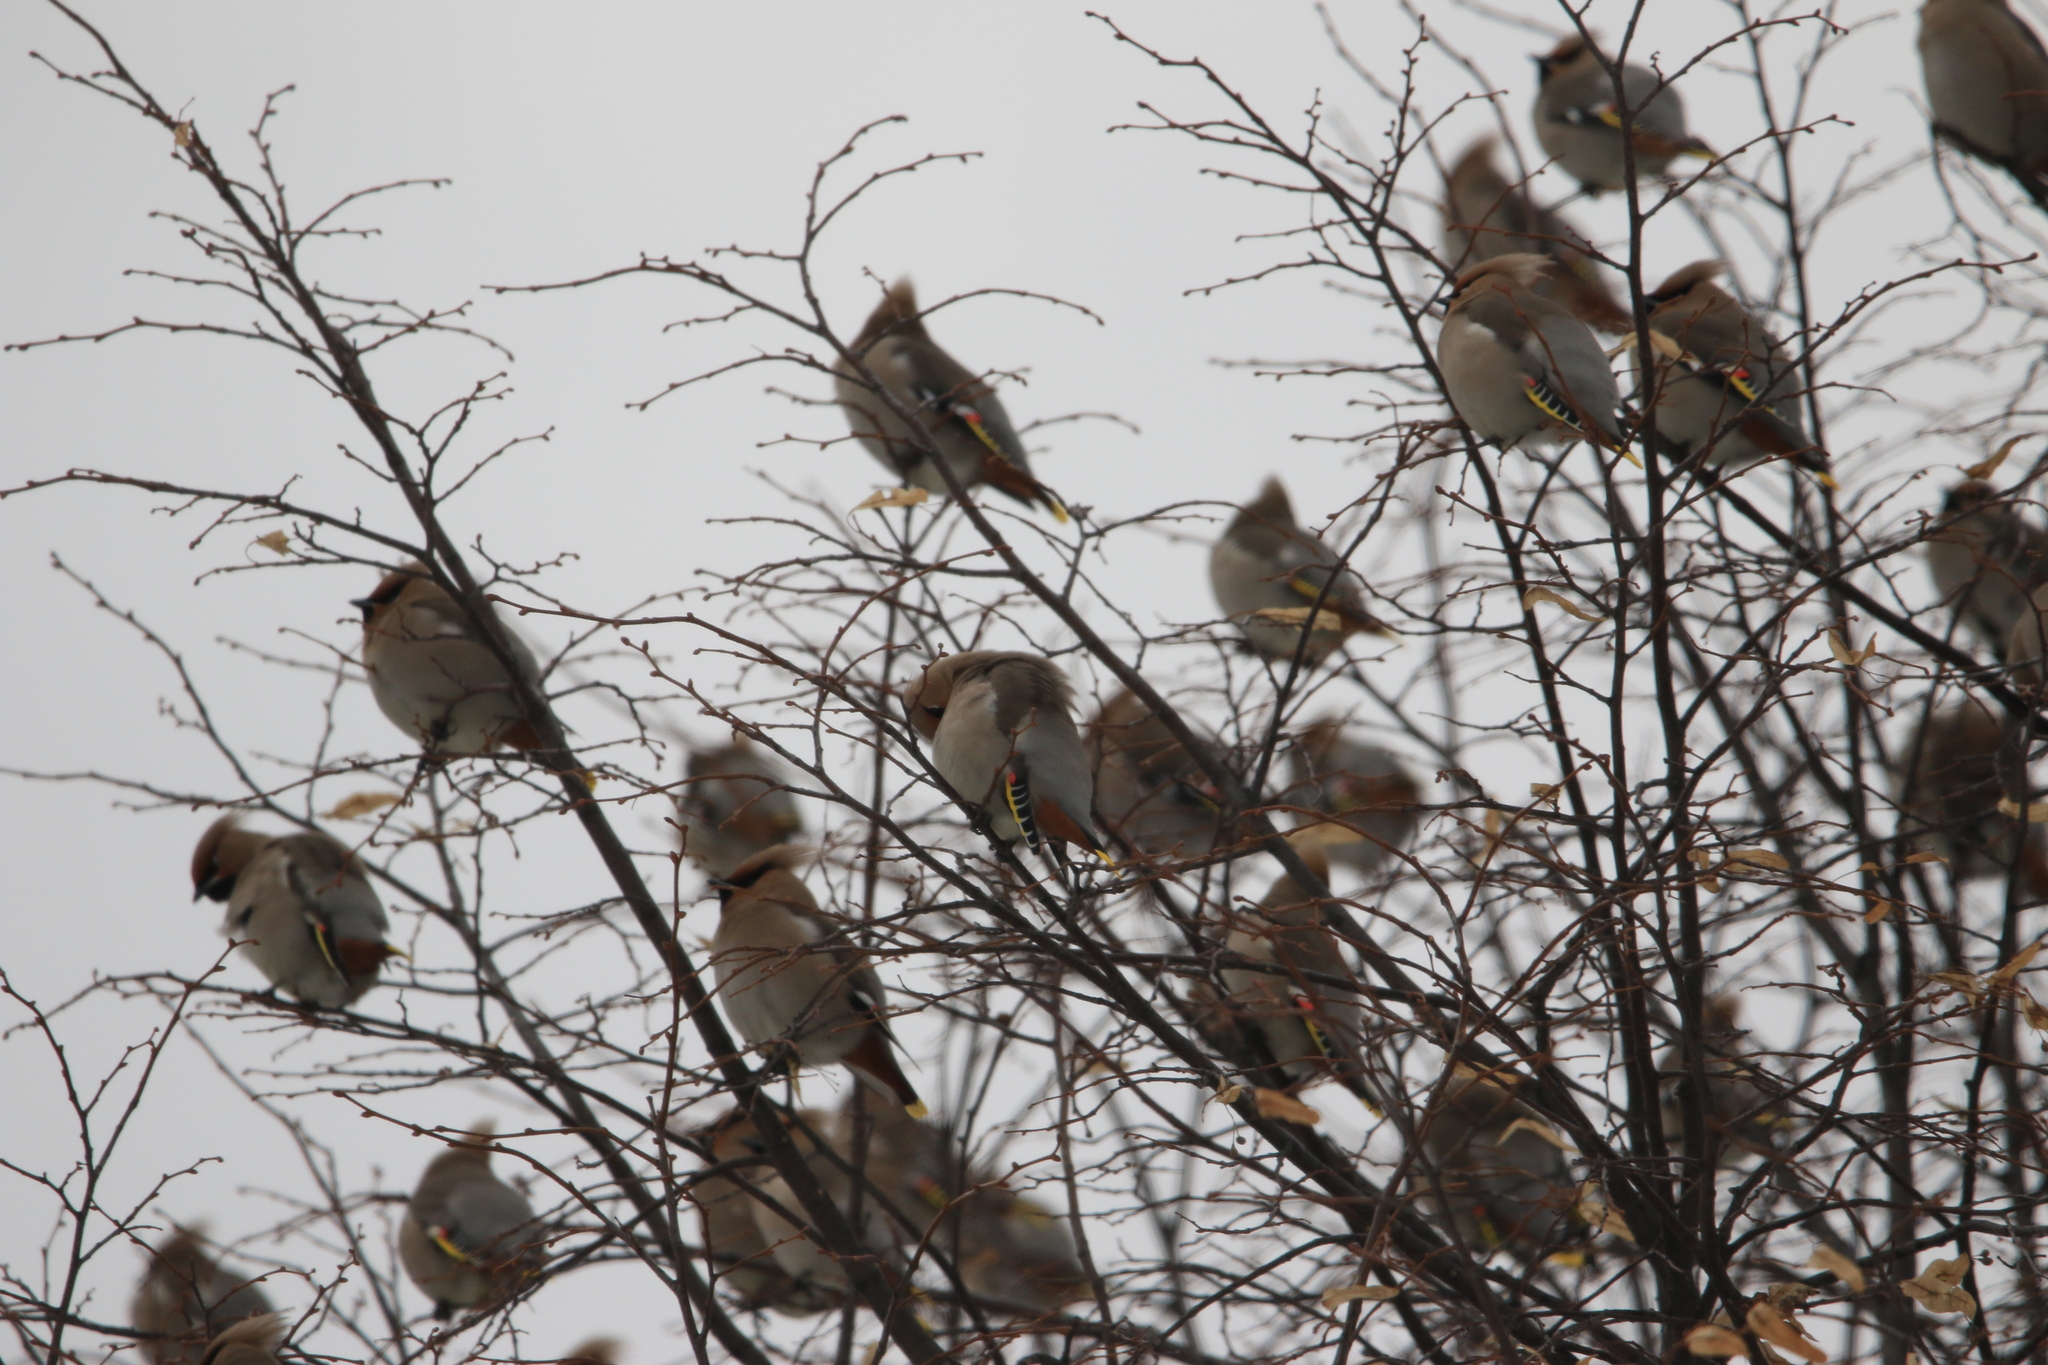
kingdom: Animalia
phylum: Chordata
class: Aves
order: Passeriformes
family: Bombycillidae
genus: Bombycilla
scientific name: Bombycilla garrulus
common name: Bohemian waxwing
